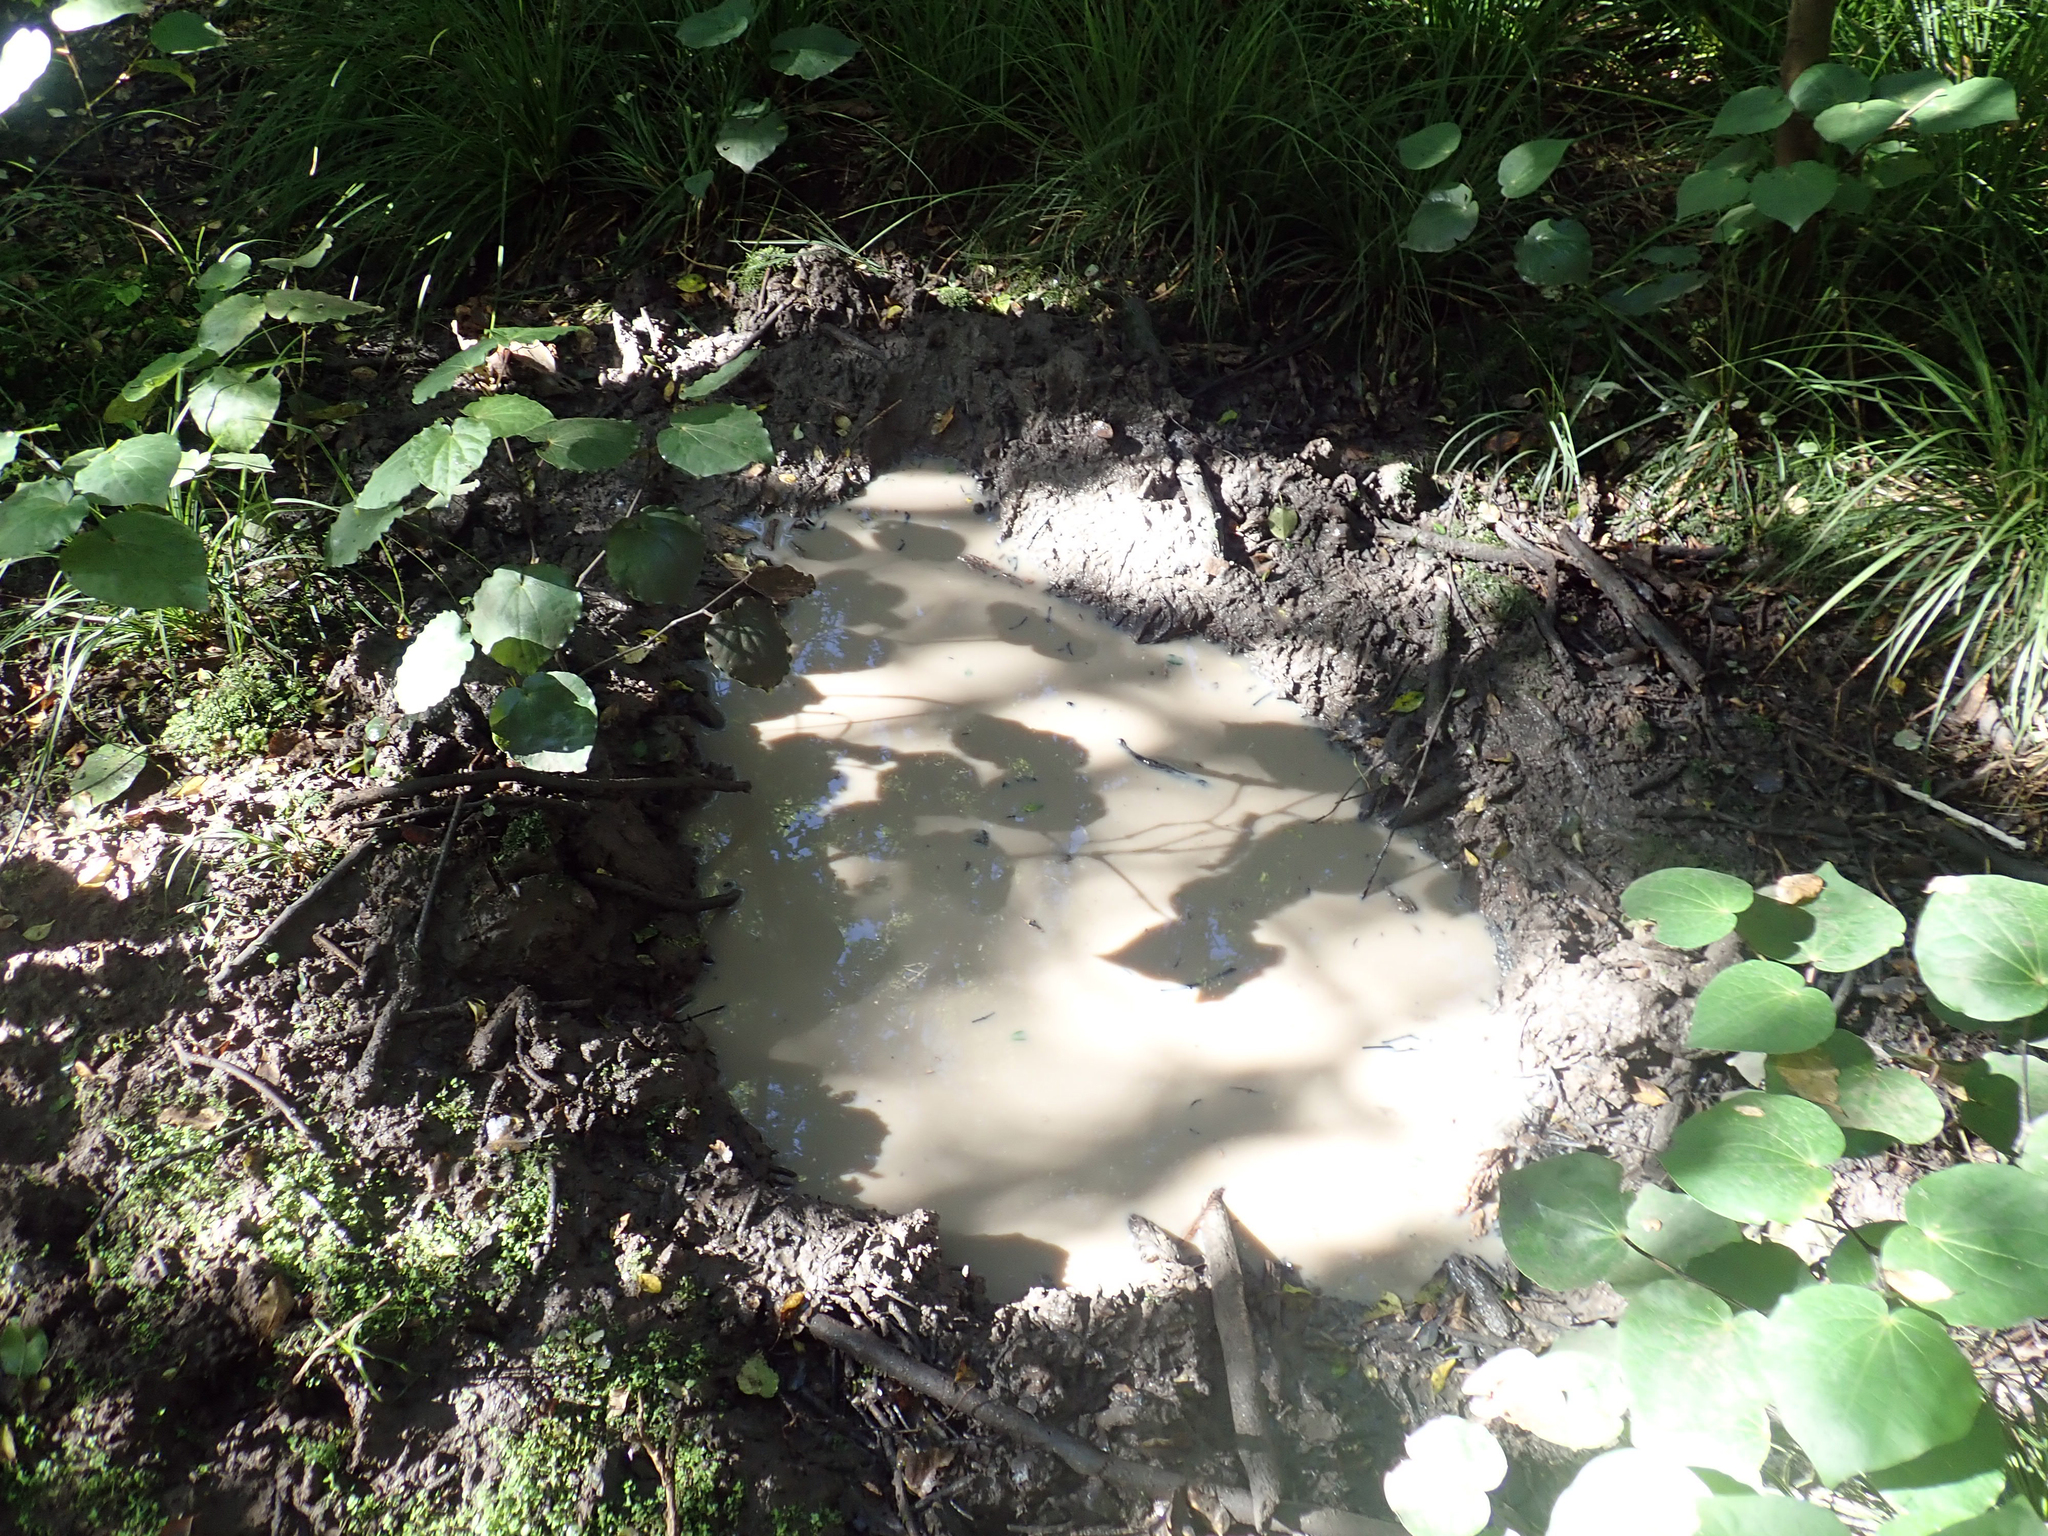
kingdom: Plantae
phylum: Tracheophyta
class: Magnoliopsida
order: Lamiales
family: Plantaginaceae
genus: Callitriche
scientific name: Callitriche chathamensis
